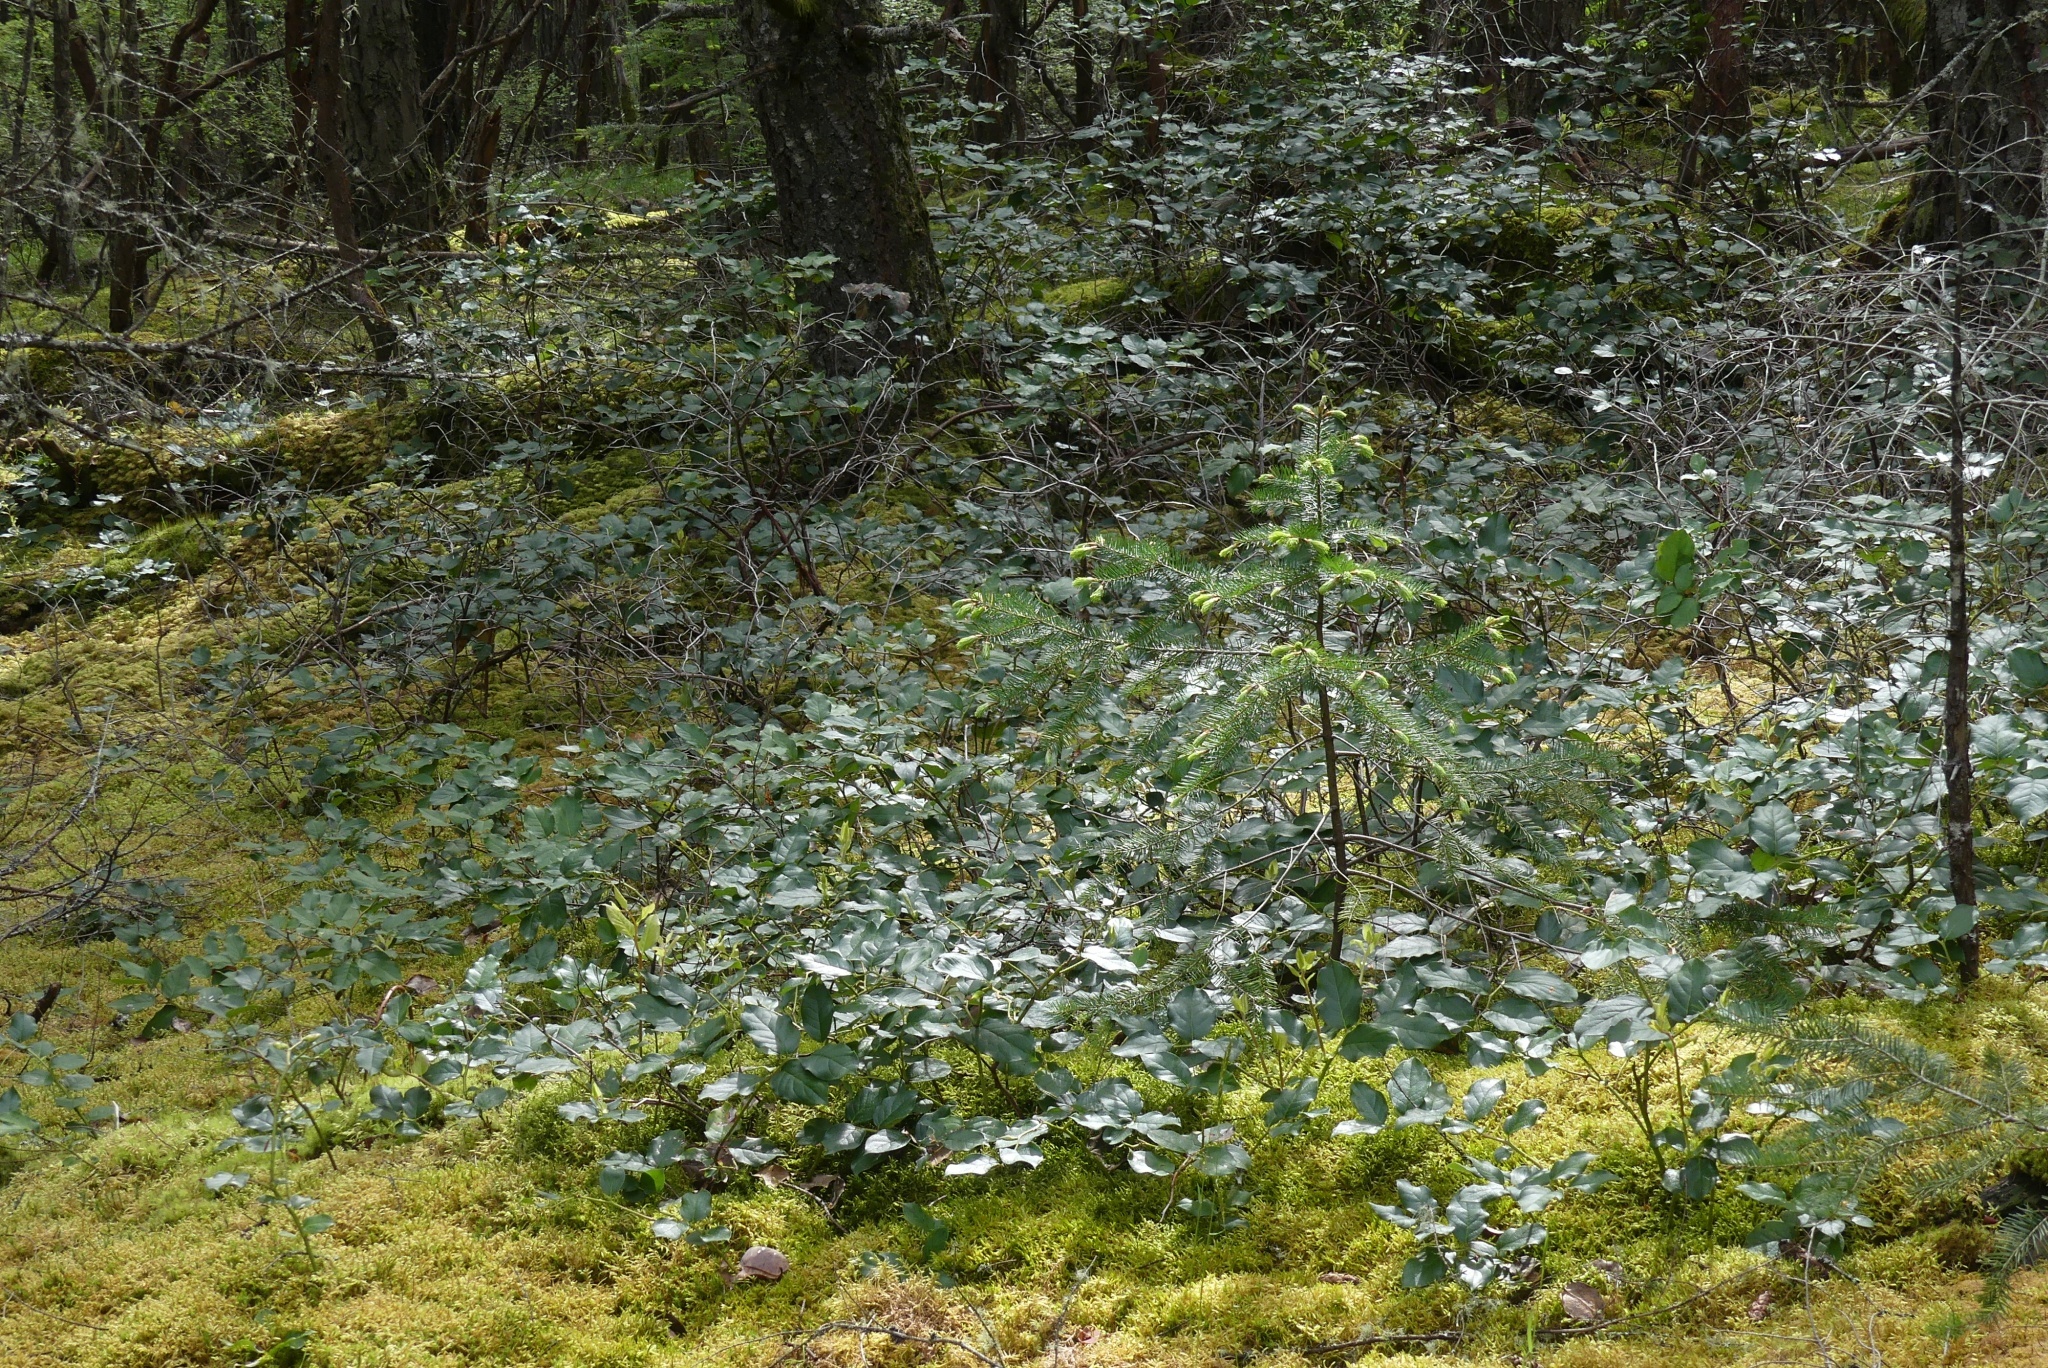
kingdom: Plantae
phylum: Tracheophyta
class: Magnoliopsida
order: Ericales
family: Ericaceae
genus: Gaultheria
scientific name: Gaultheria shallon
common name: Shallon
